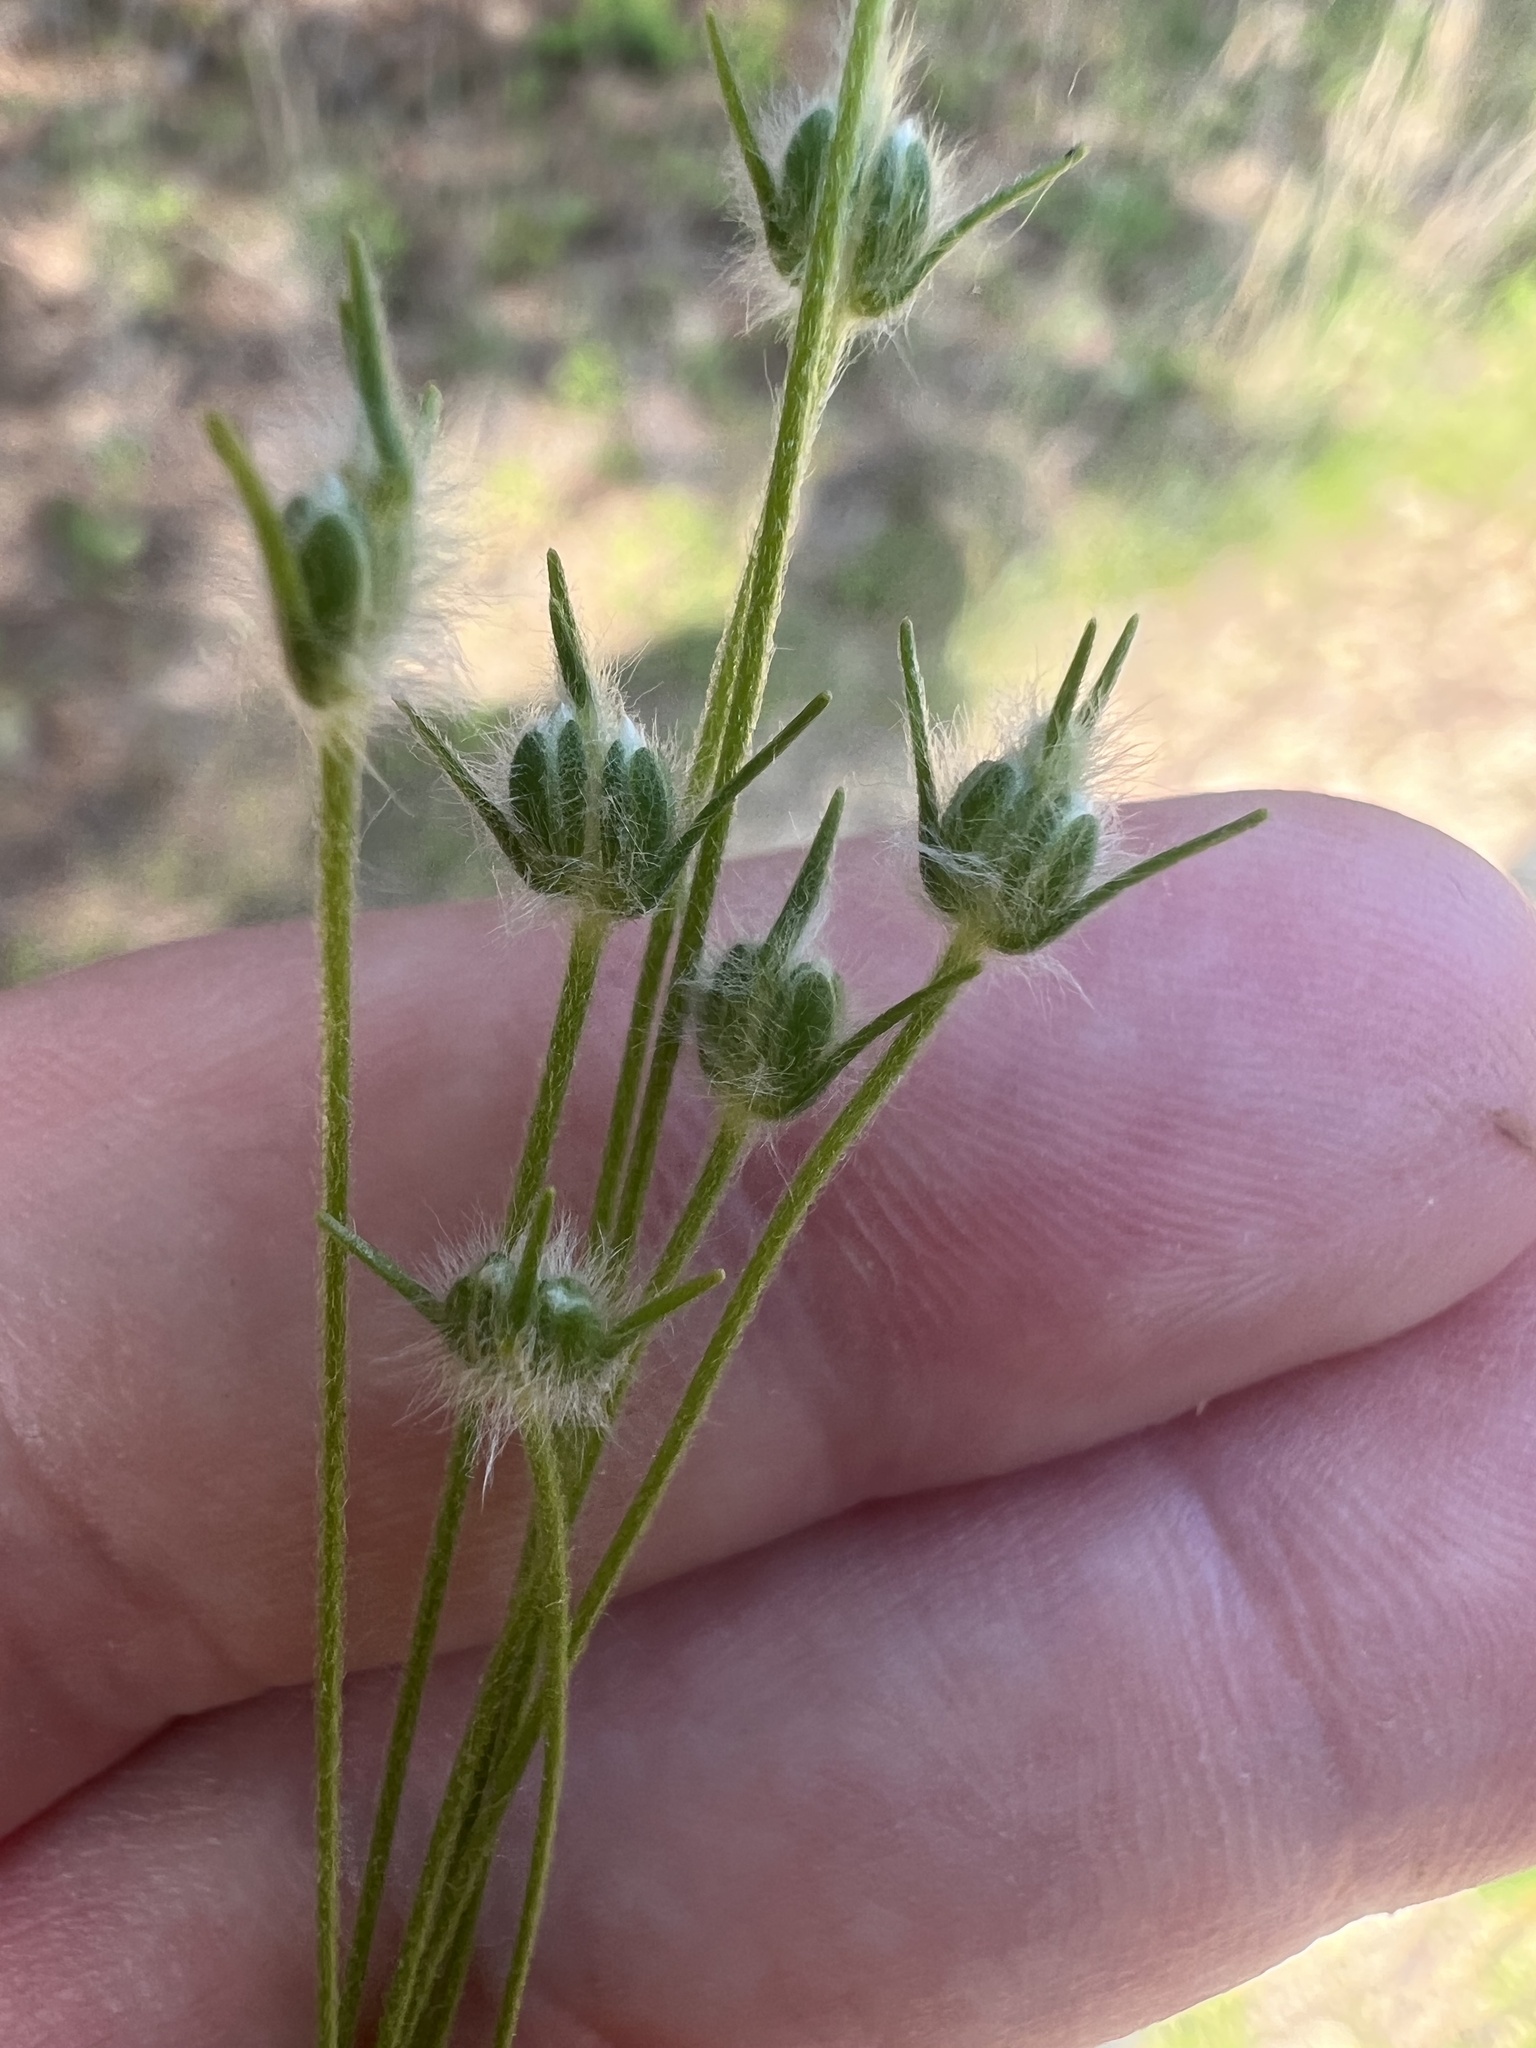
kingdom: Plantae
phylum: Tracheophyta
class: Magnoliopsida
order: Lamiales
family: Plantaginaceae
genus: Plantago
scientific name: Plantago aristata
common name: Bracted plantain
